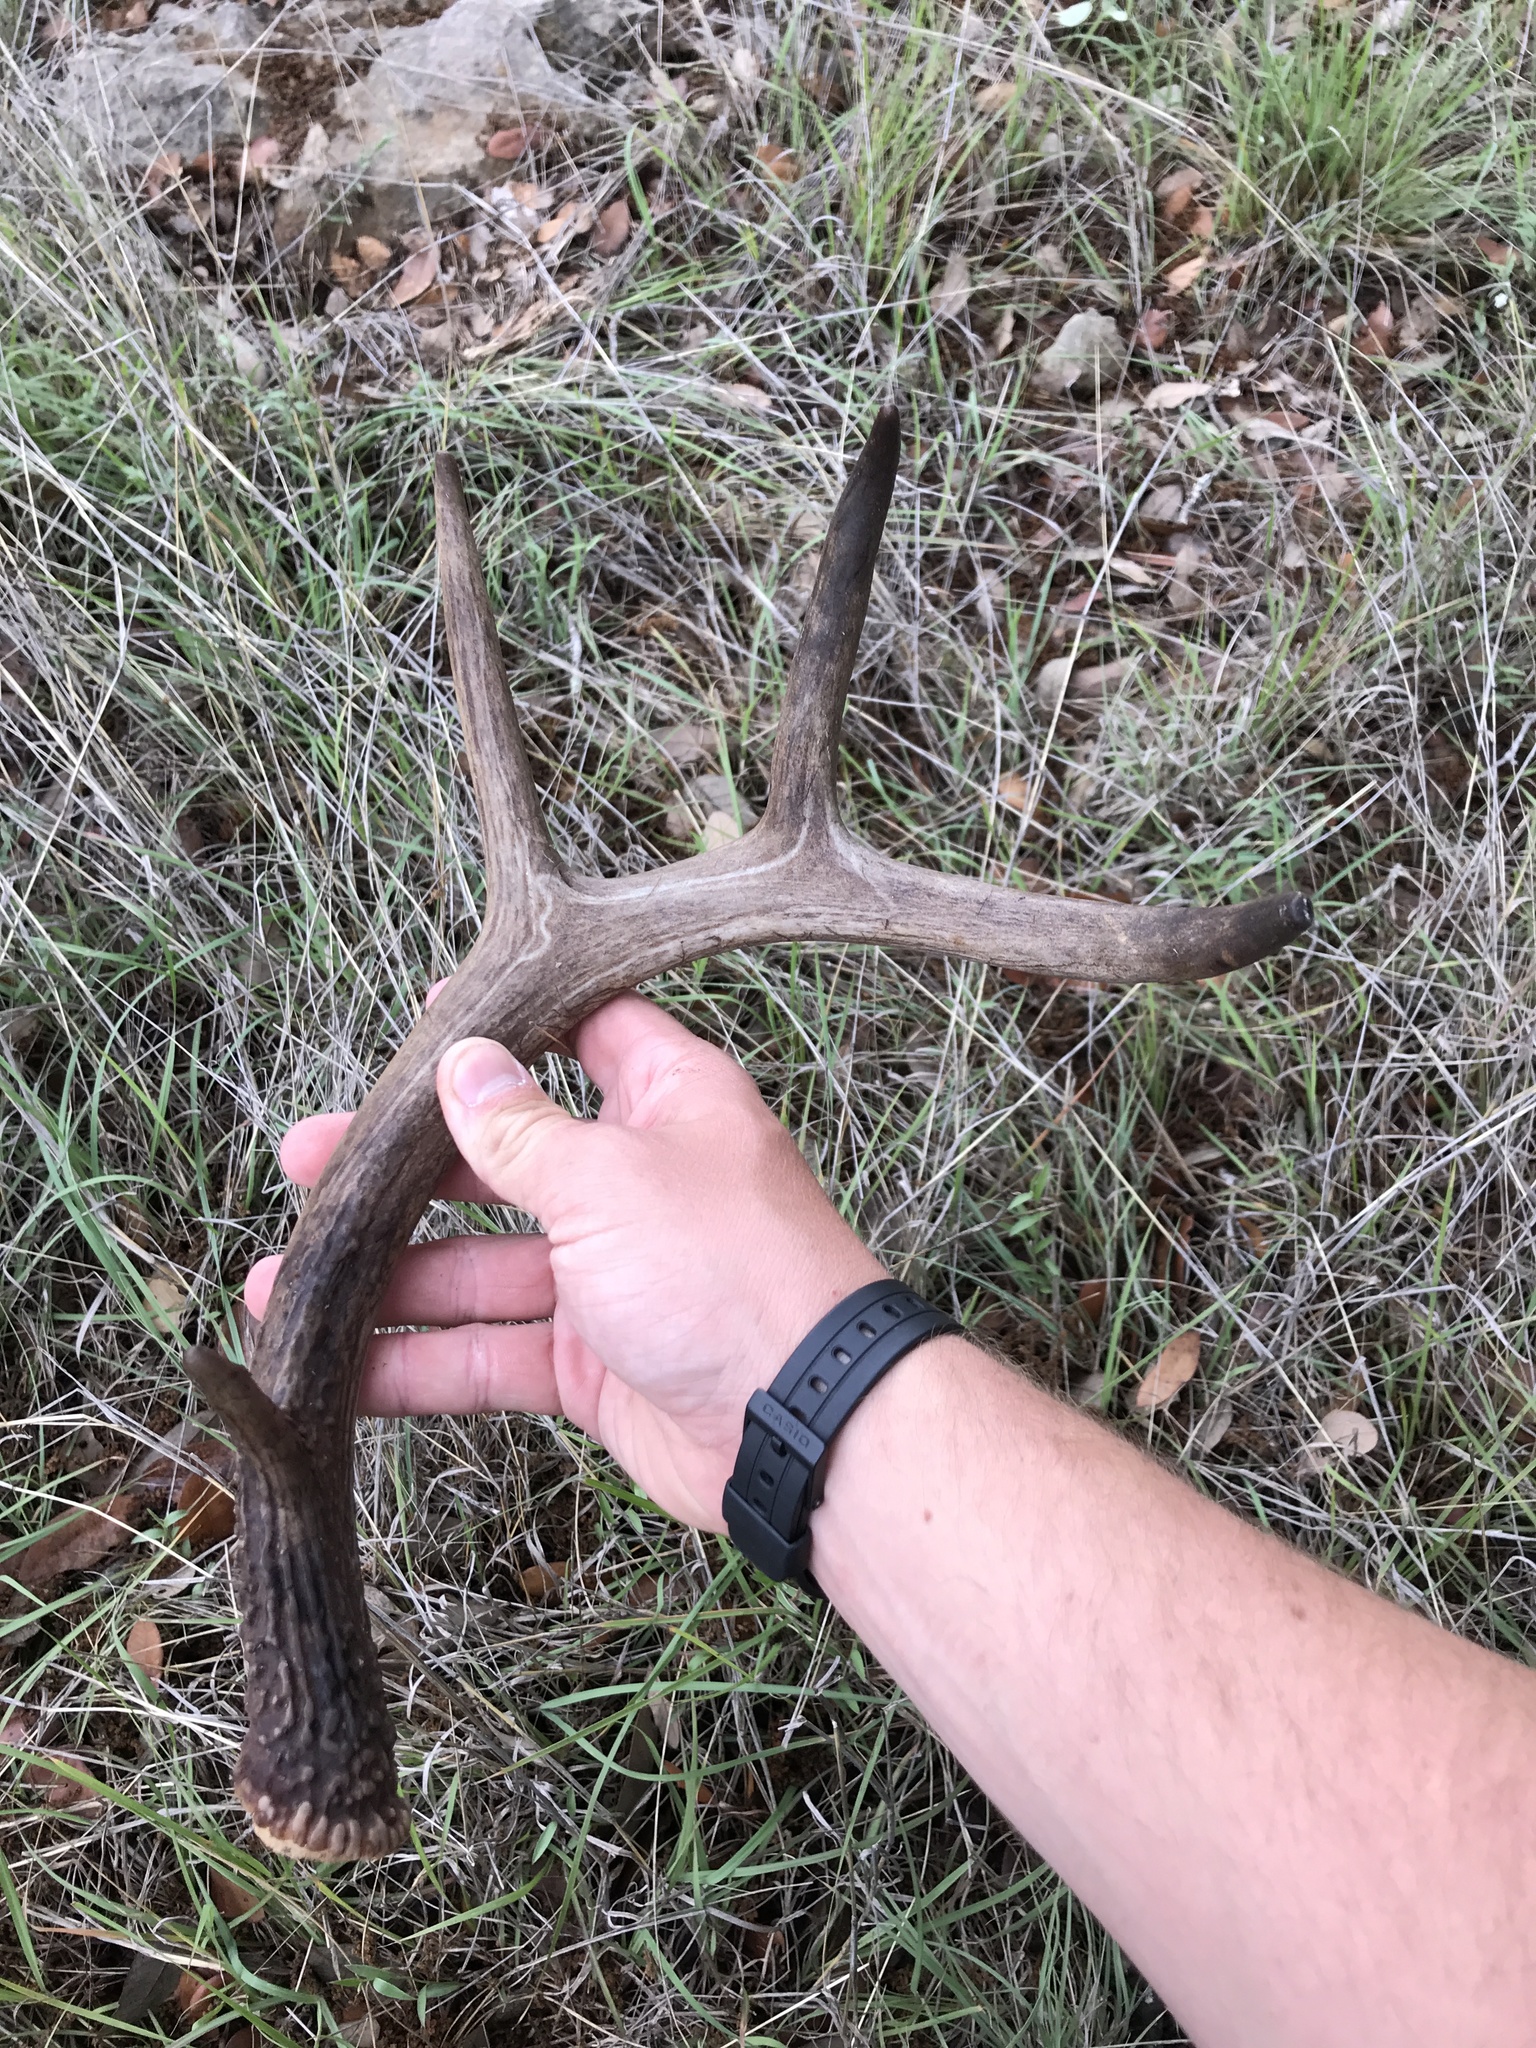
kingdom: Animalia
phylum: Chordata
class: Mammalia
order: Artiodactyla
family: Cervidae
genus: Odocoileus
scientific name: Odocoileus virginianus
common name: White-tailed deer
